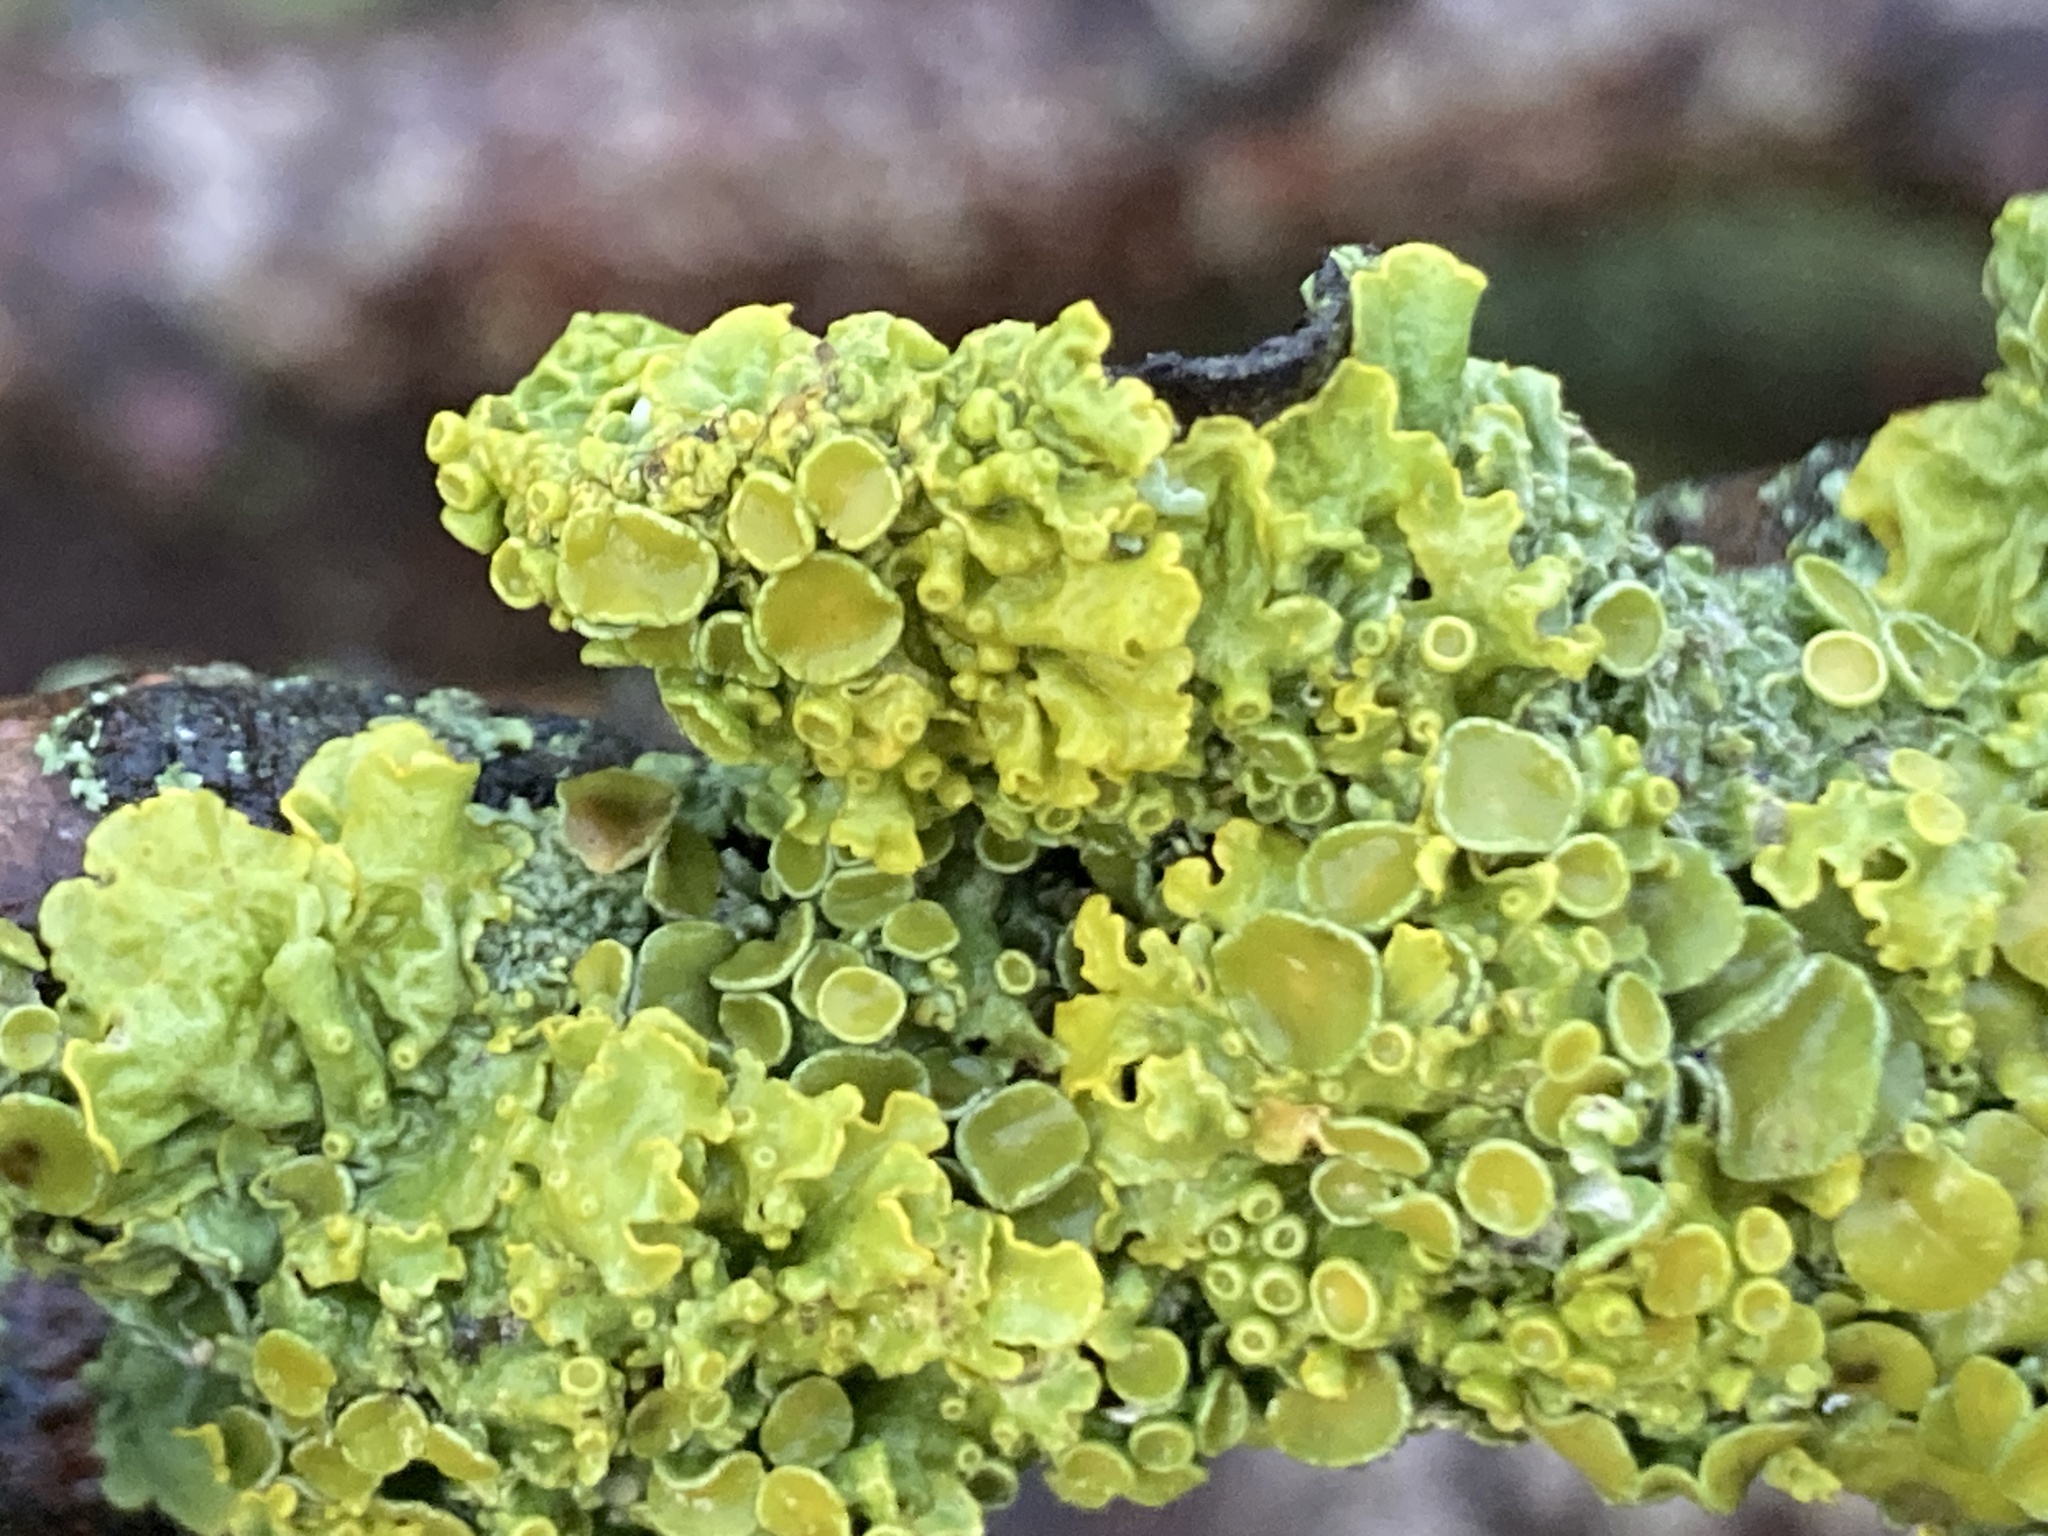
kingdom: Fungi
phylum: Ascomycota
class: Lecanoromycetes
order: Teloschistales
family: Teloschistaceae
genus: Xanthoria
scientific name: Xanthoria parietina
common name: Common orange lichen
